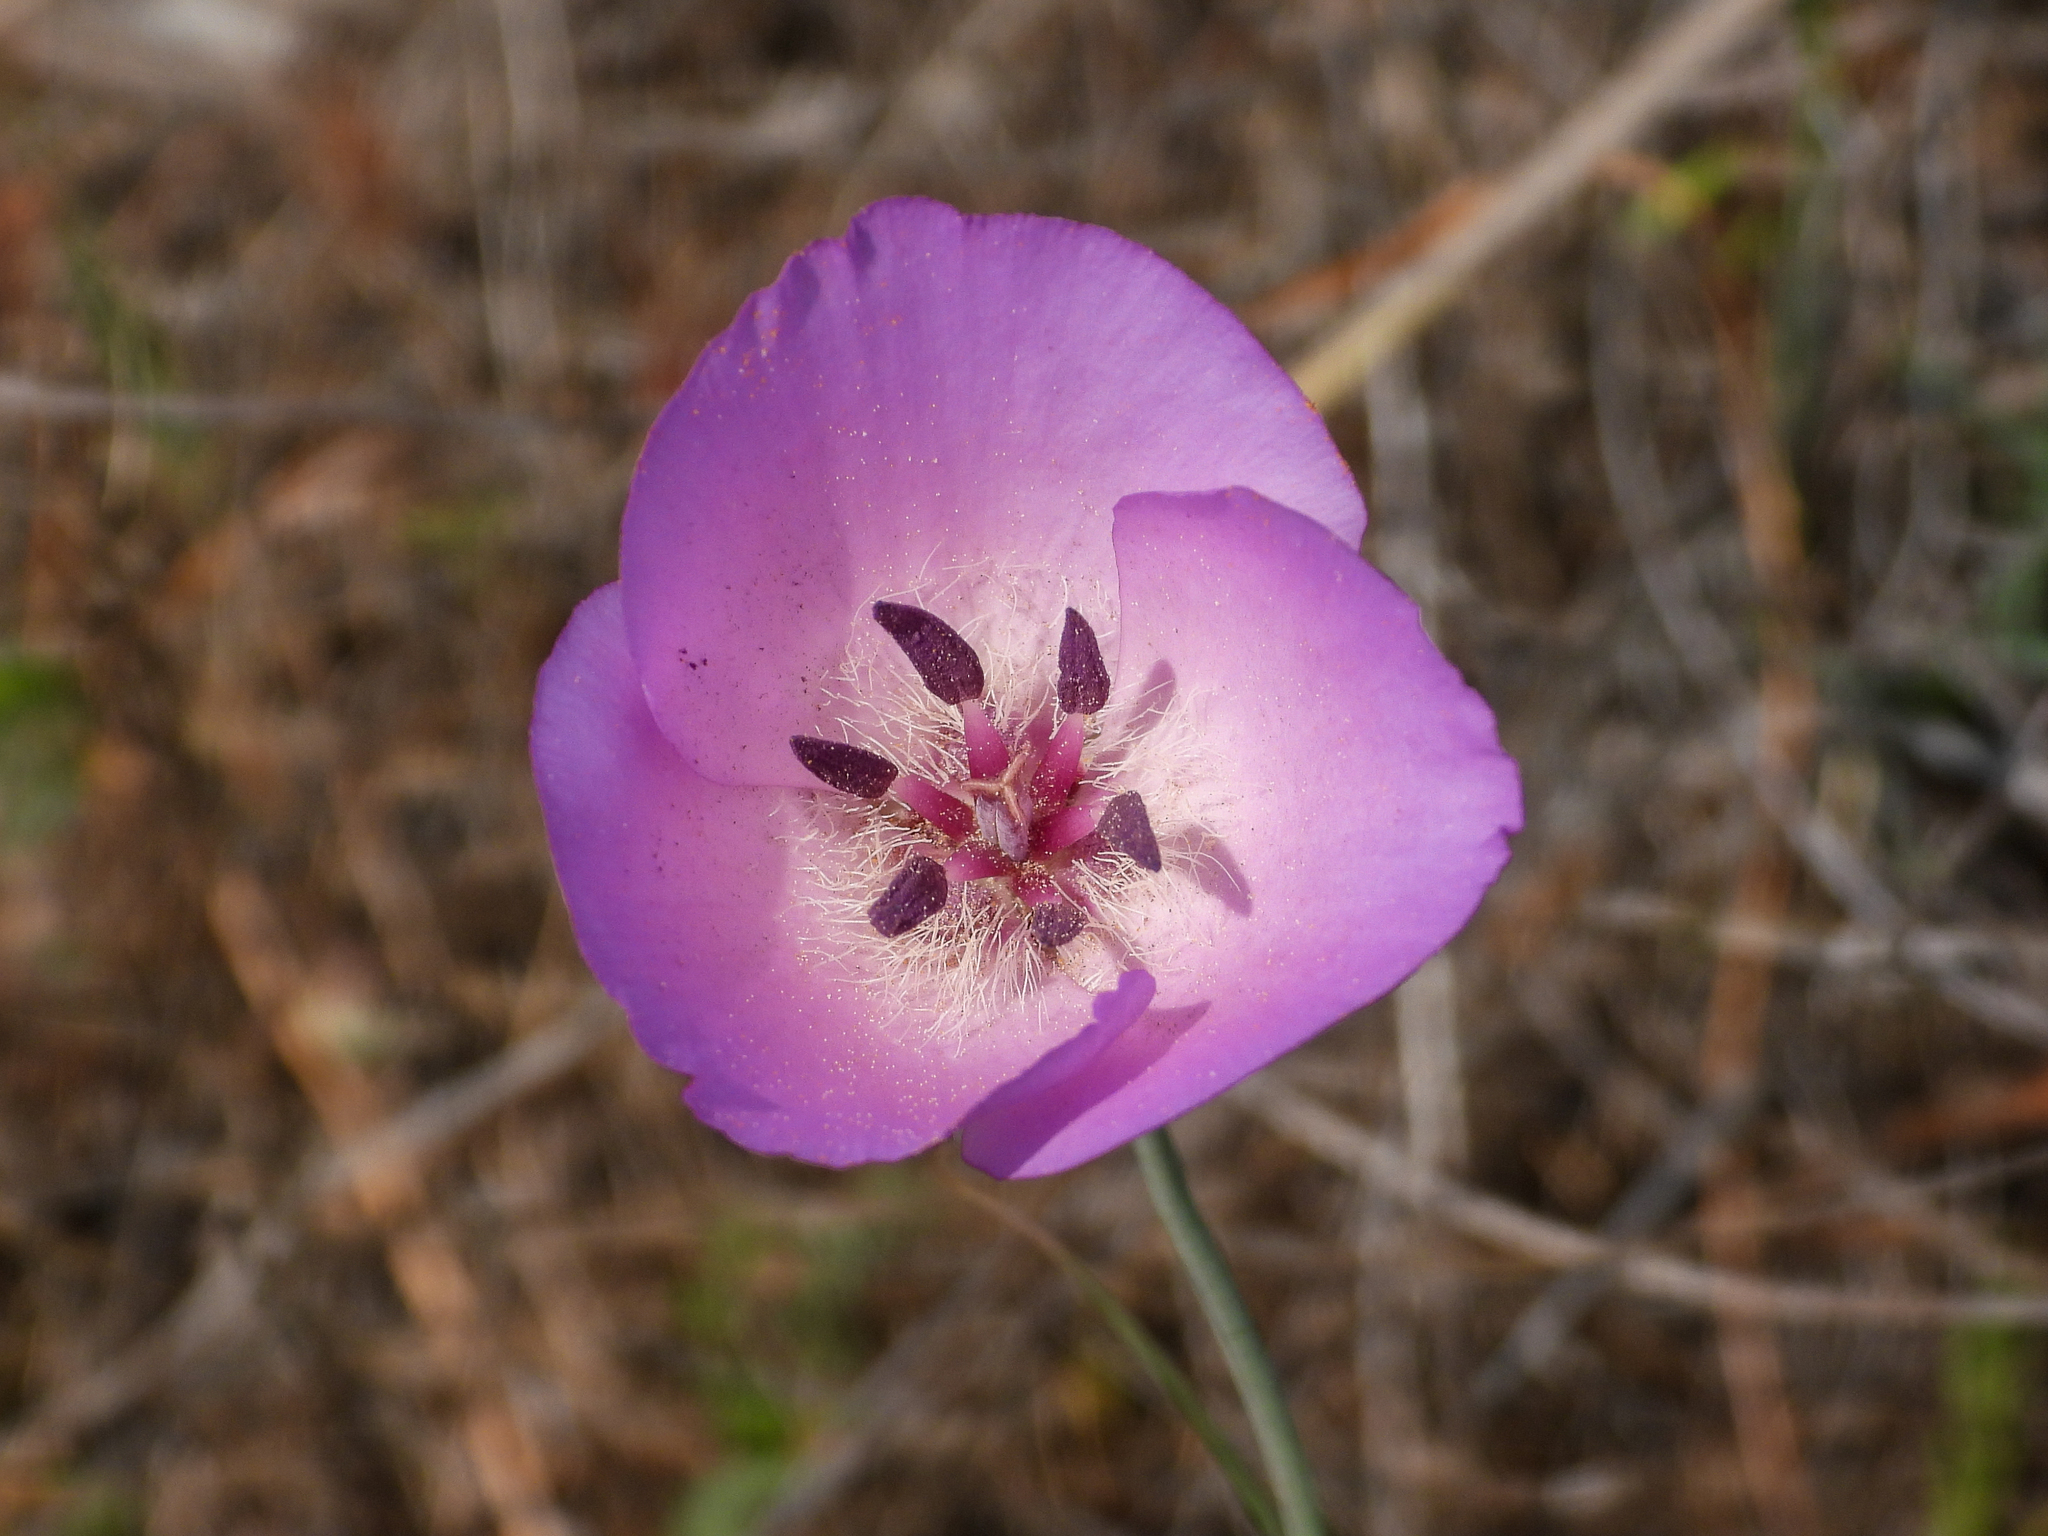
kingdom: Plantae
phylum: Tracheophyta
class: Liliopsida
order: Liliales
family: Liliaceae
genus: Calochortus
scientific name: Calochortus splendens
